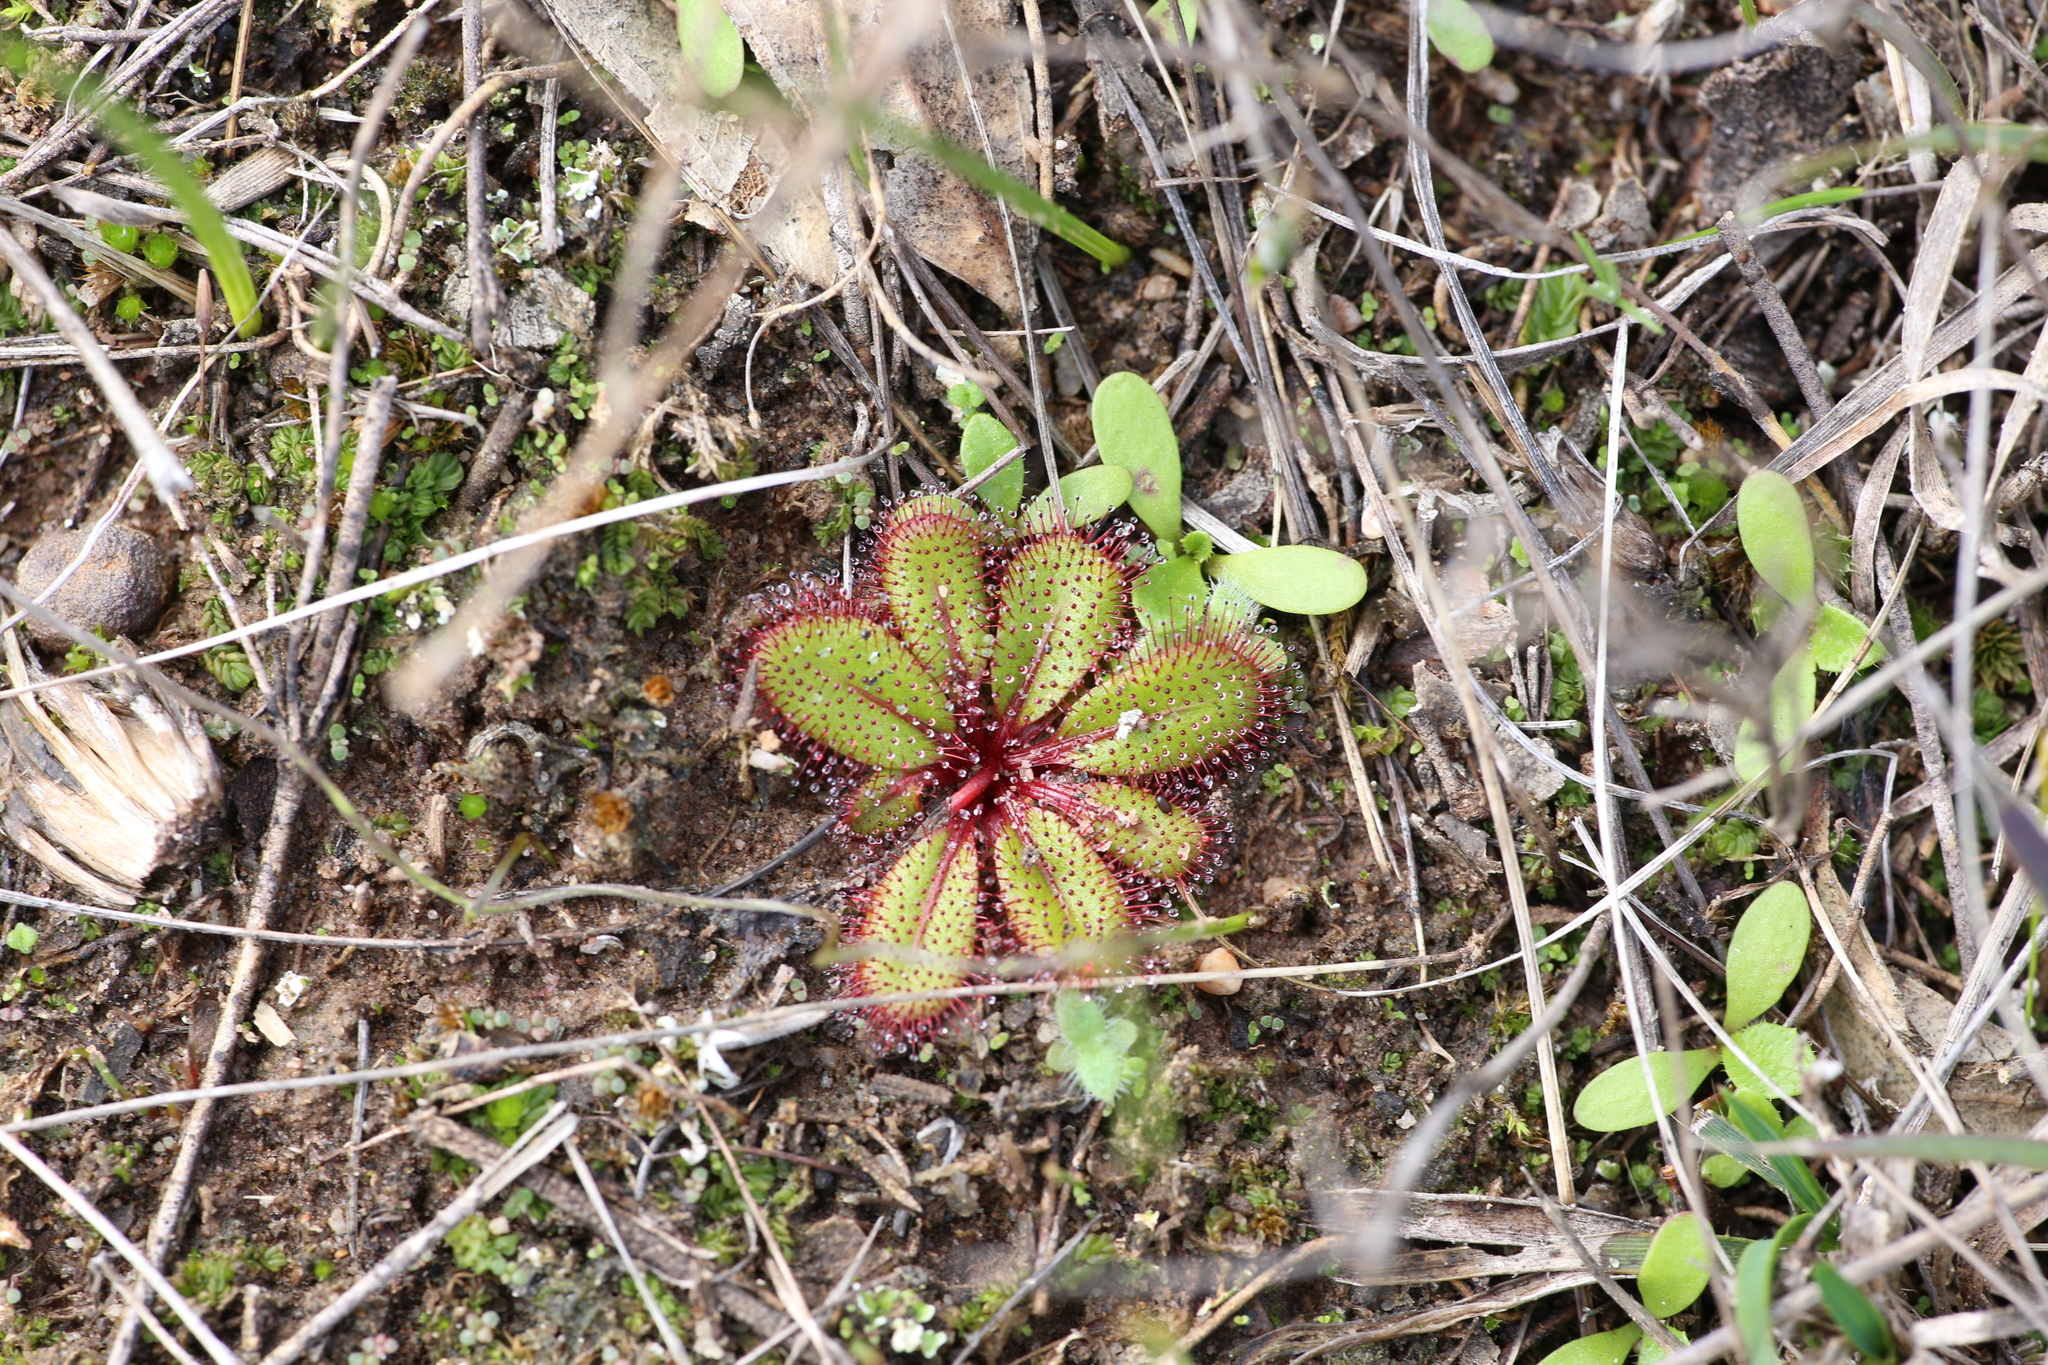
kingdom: Plantae
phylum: Tracheophyta
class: Magnoliopsida
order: Caryophyllales
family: Droseraceae
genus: Drosera
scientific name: Drosera tubaestylis
